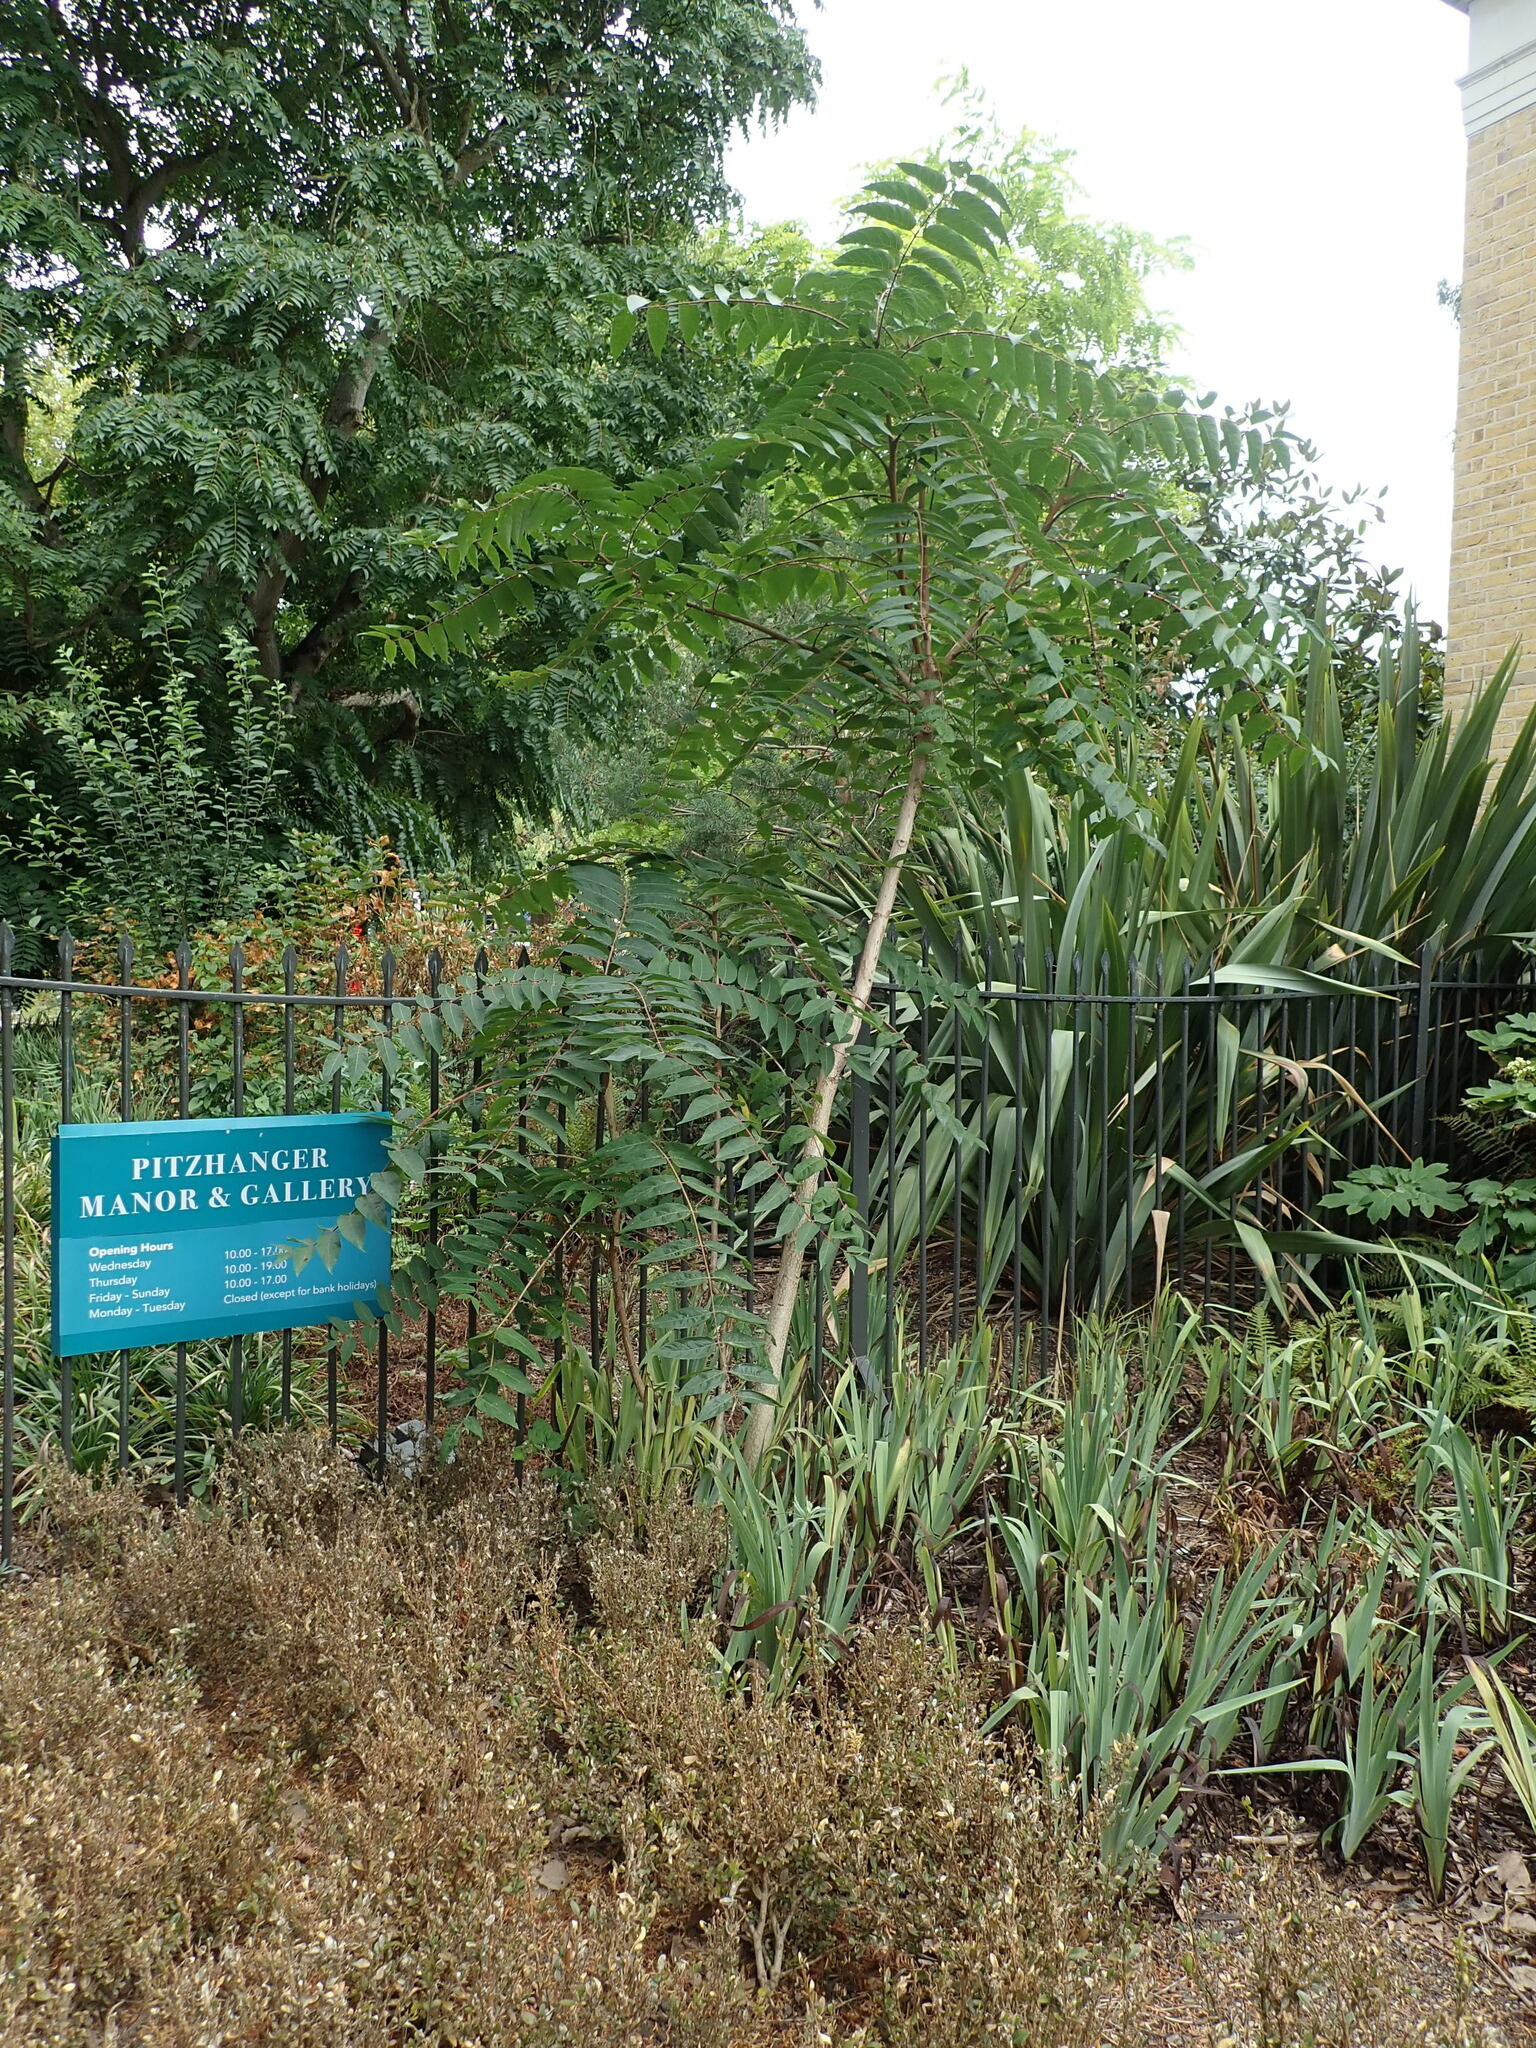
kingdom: Plantae
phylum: Tracheophyta
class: Magnoliopsida
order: Sapindales
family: Simaroubaceae
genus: Ailanthus
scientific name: Ailanthus altissima
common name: Tree-of-heaven
